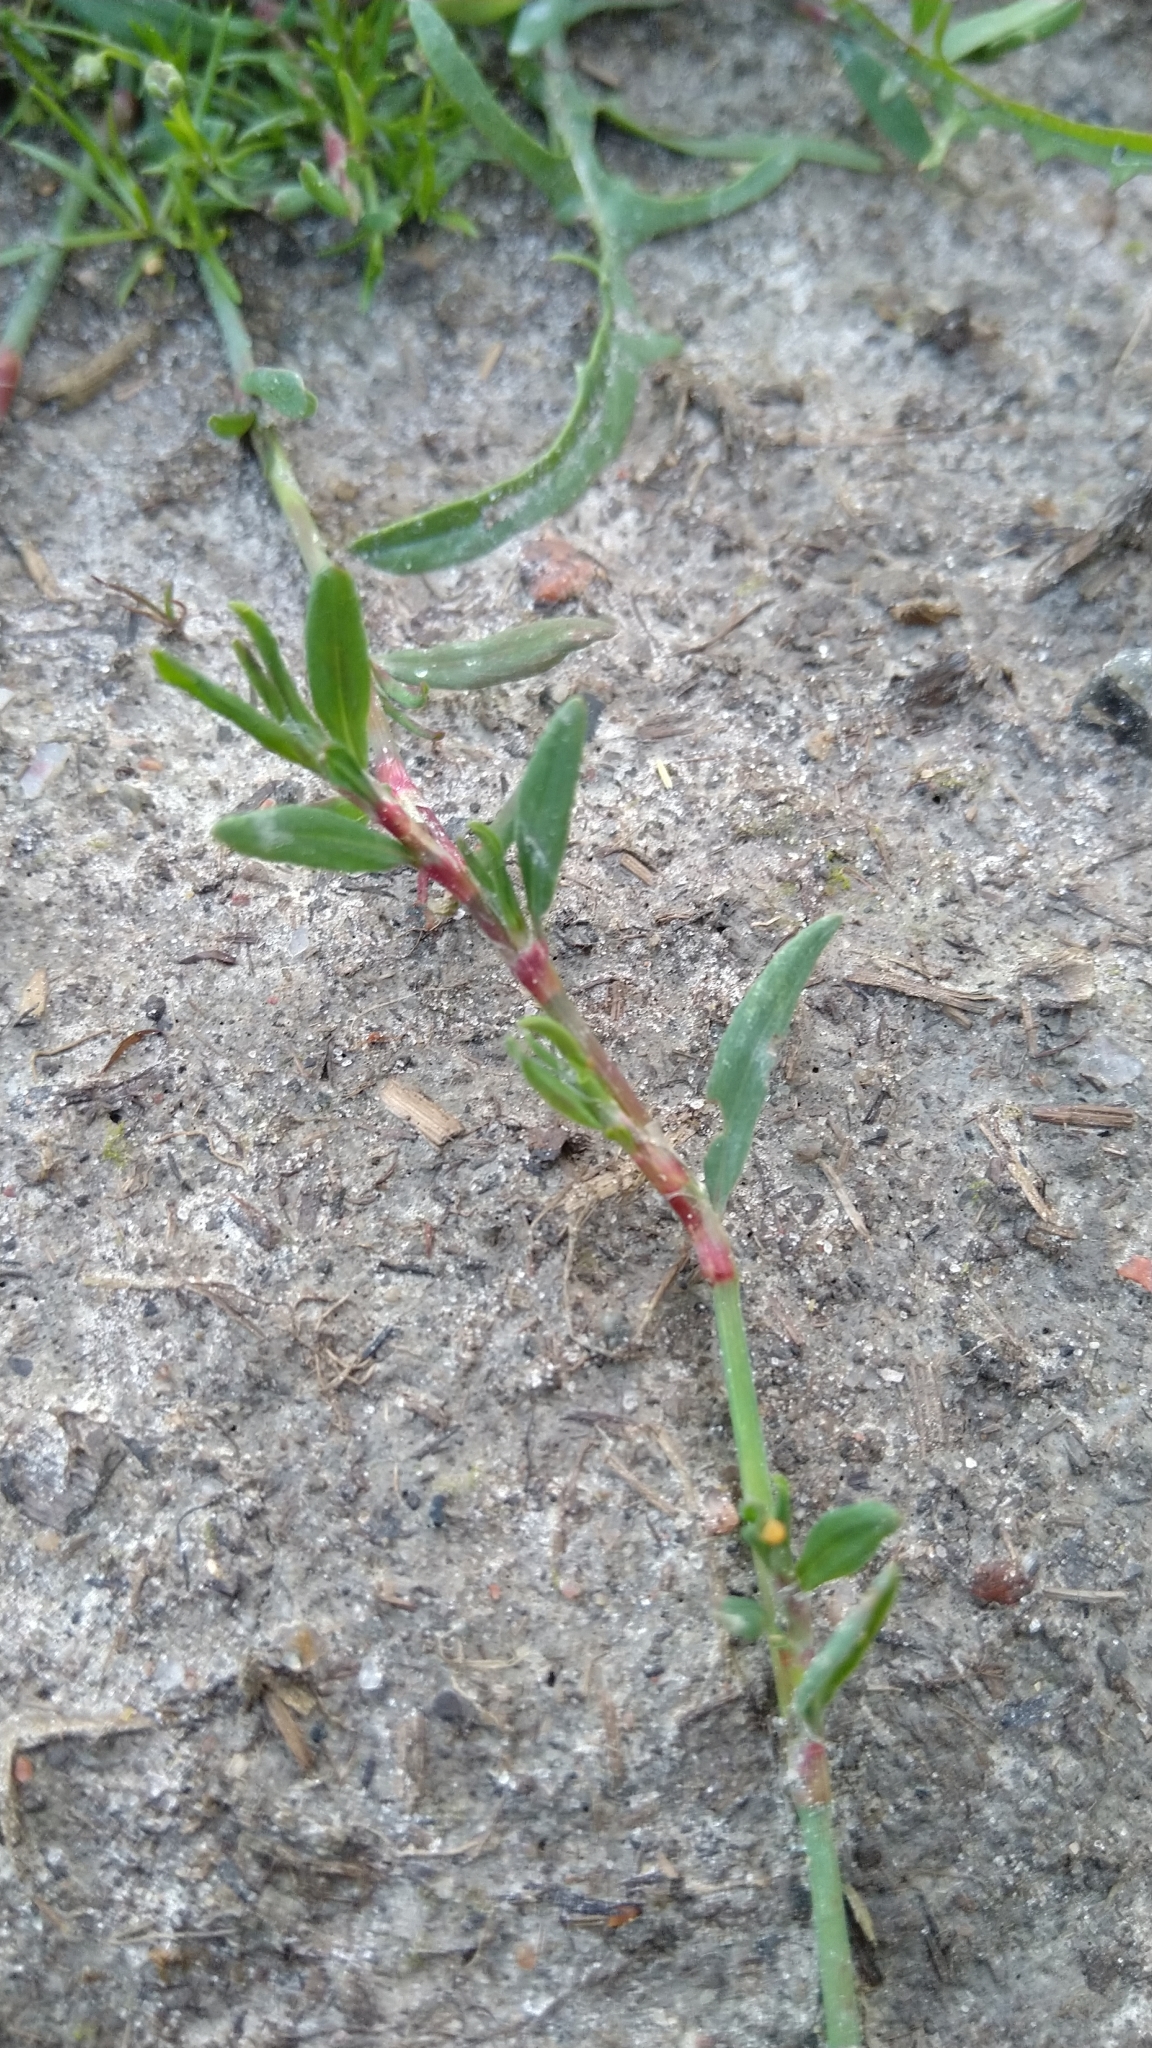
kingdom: Plantae
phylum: Tracheophyta
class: Magnoliopsida
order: Caryophyllales
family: Polygonaceae
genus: Polygonum
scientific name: Polygonum aviculare
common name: Prostrate knotweed
